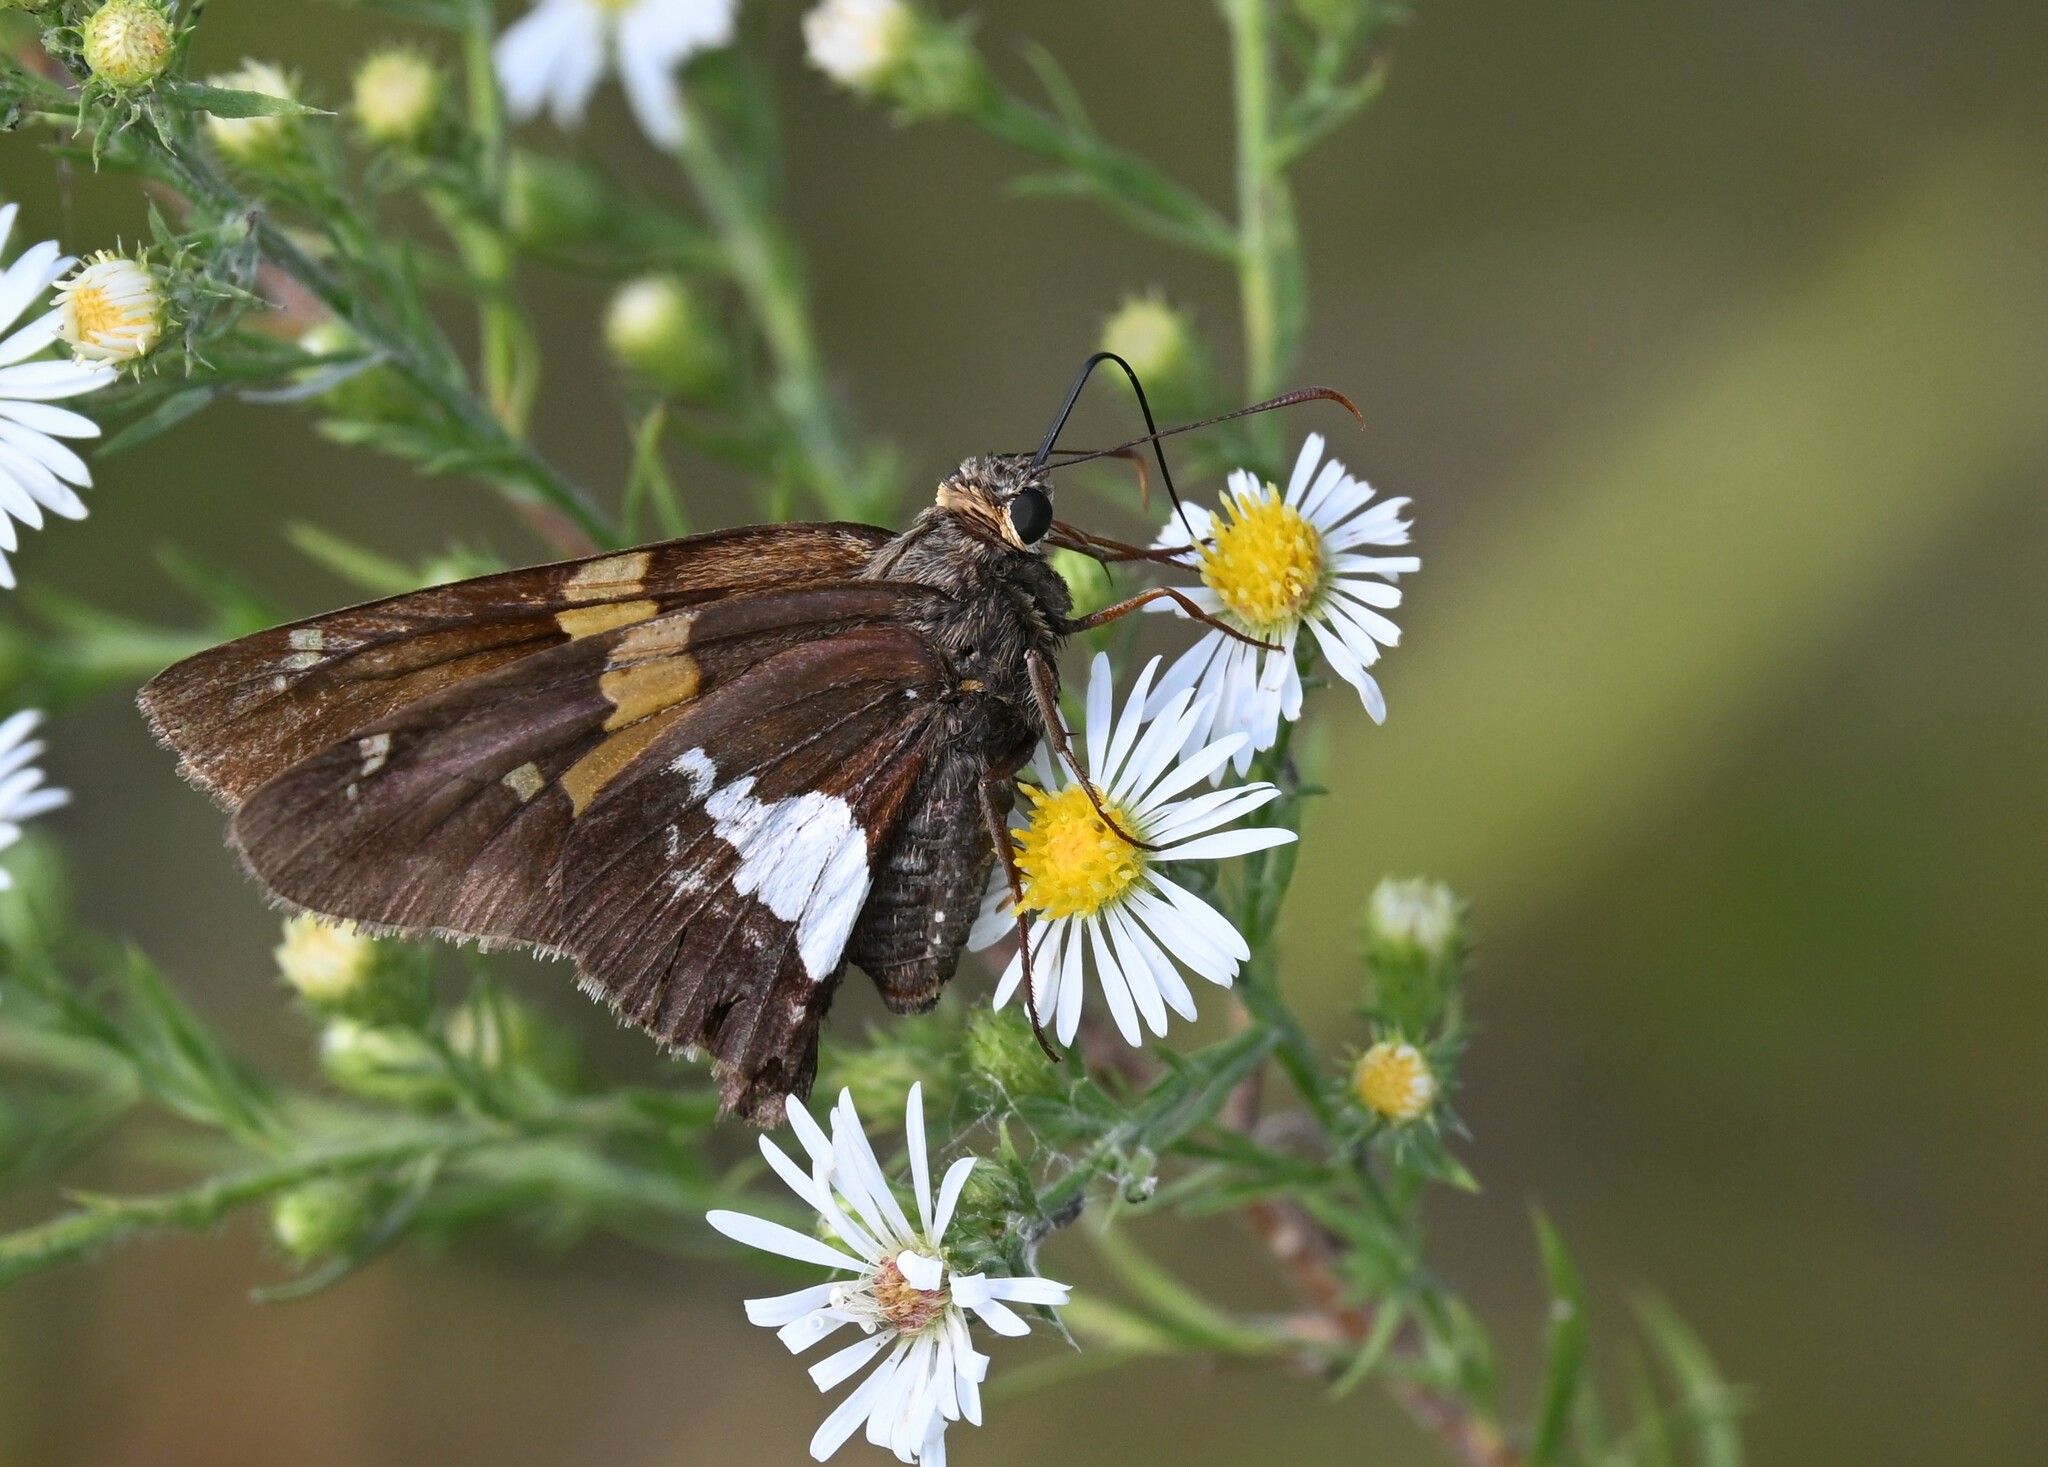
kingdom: Animalia
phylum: Arthropoda
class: Insecta
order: Lepidoptera
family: Hesperiidae
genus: Epargyreus
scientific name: Epargyreus clarus
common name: Silver-spotted skipper
